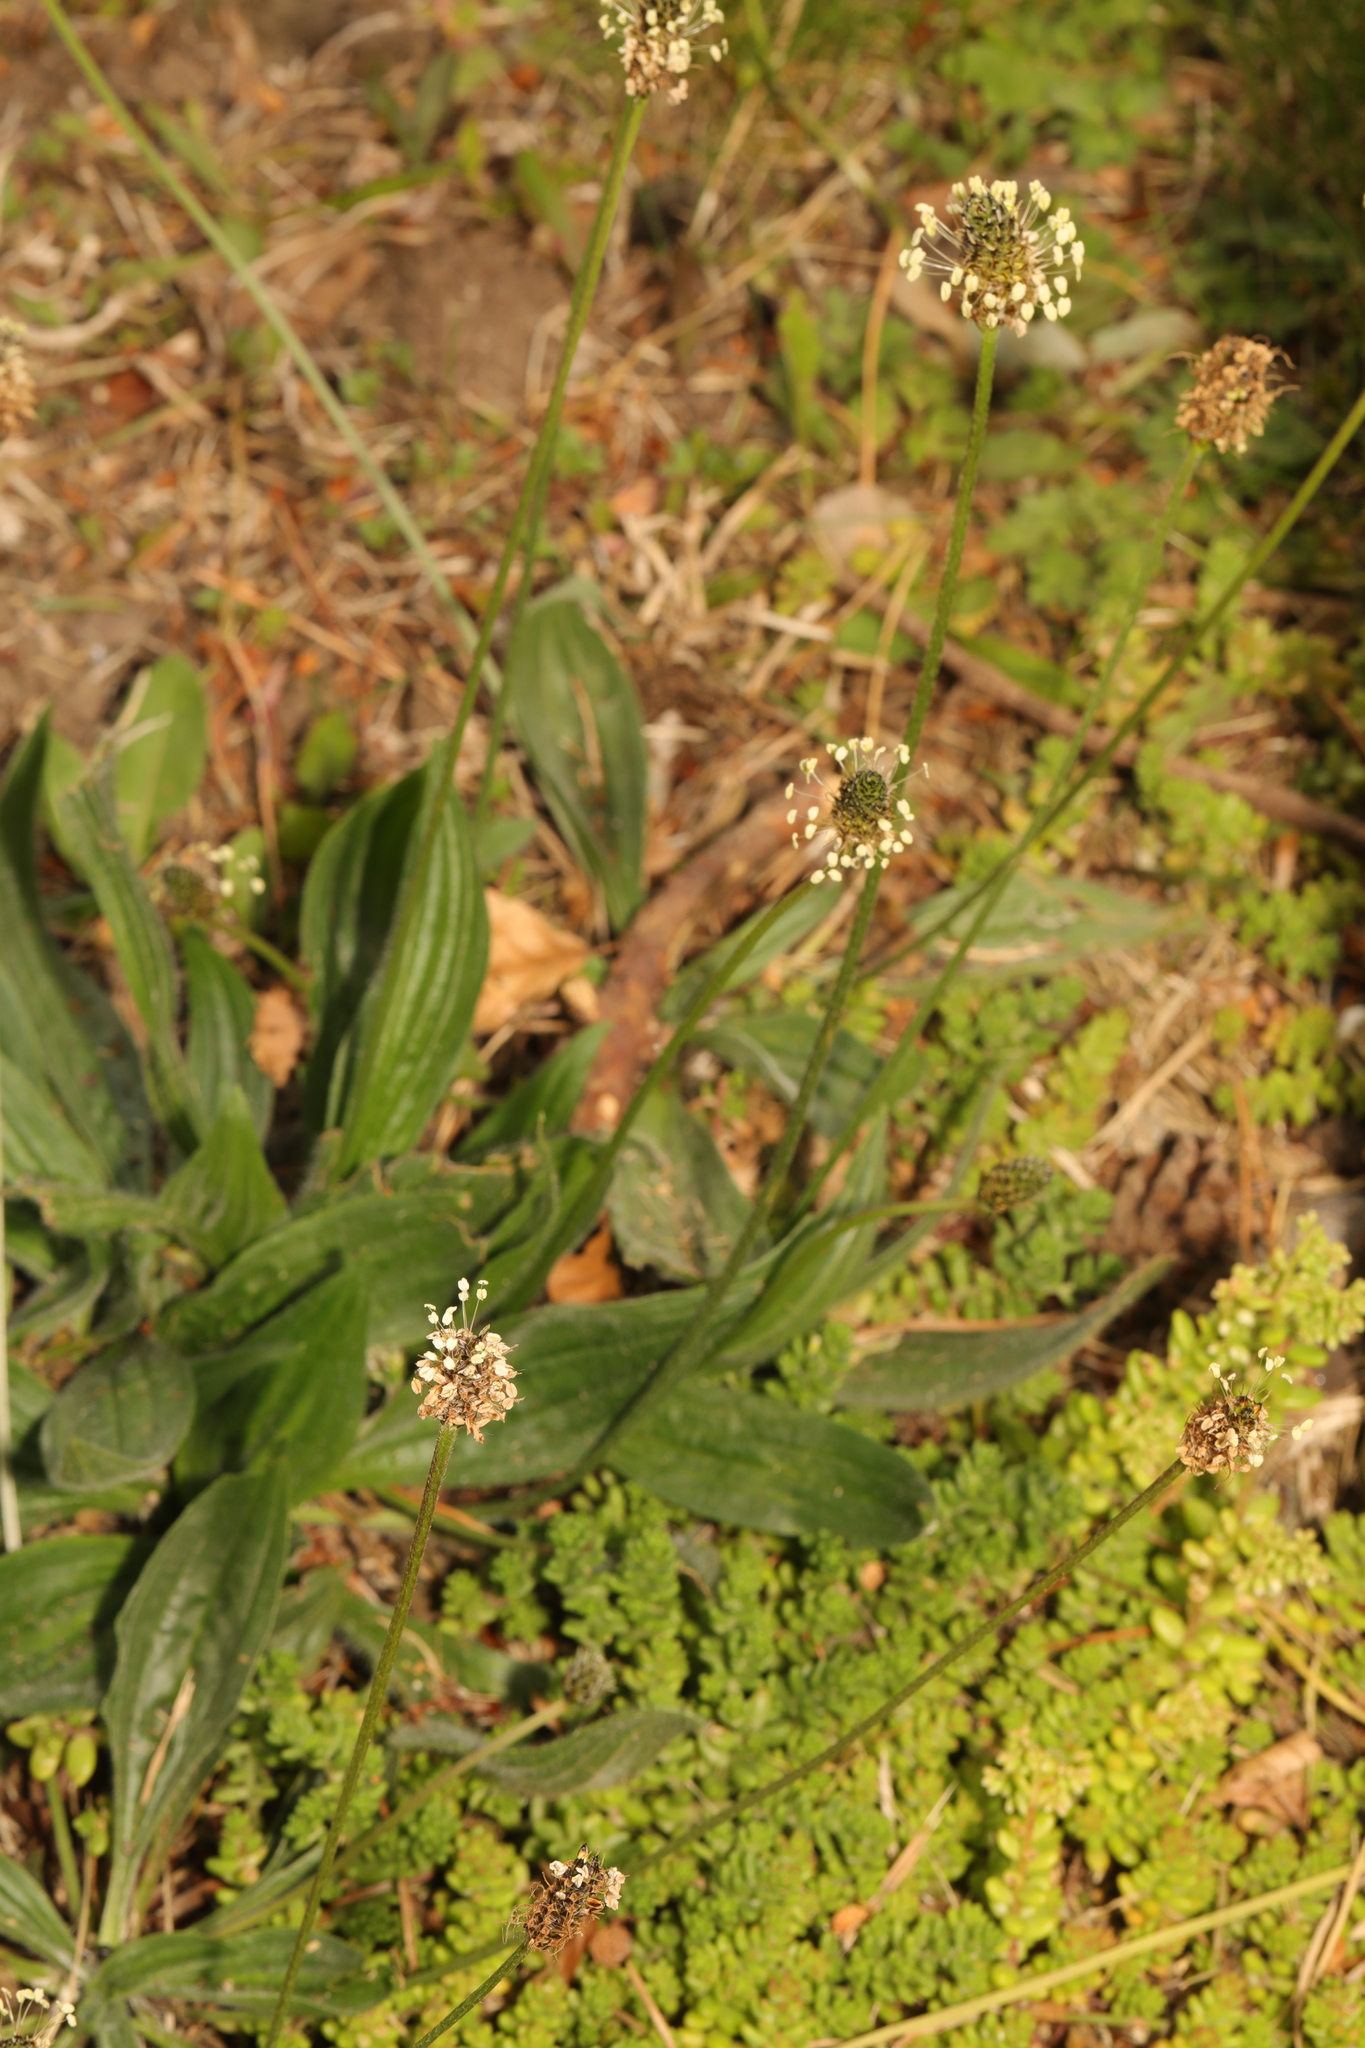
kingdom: Plantae
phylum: Tracheophyta
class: Magnoliopsida
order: Lamiales
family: Plantaginaceae
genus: Plantago
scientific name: Plantago lanceolata
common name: Ribwort plantain
